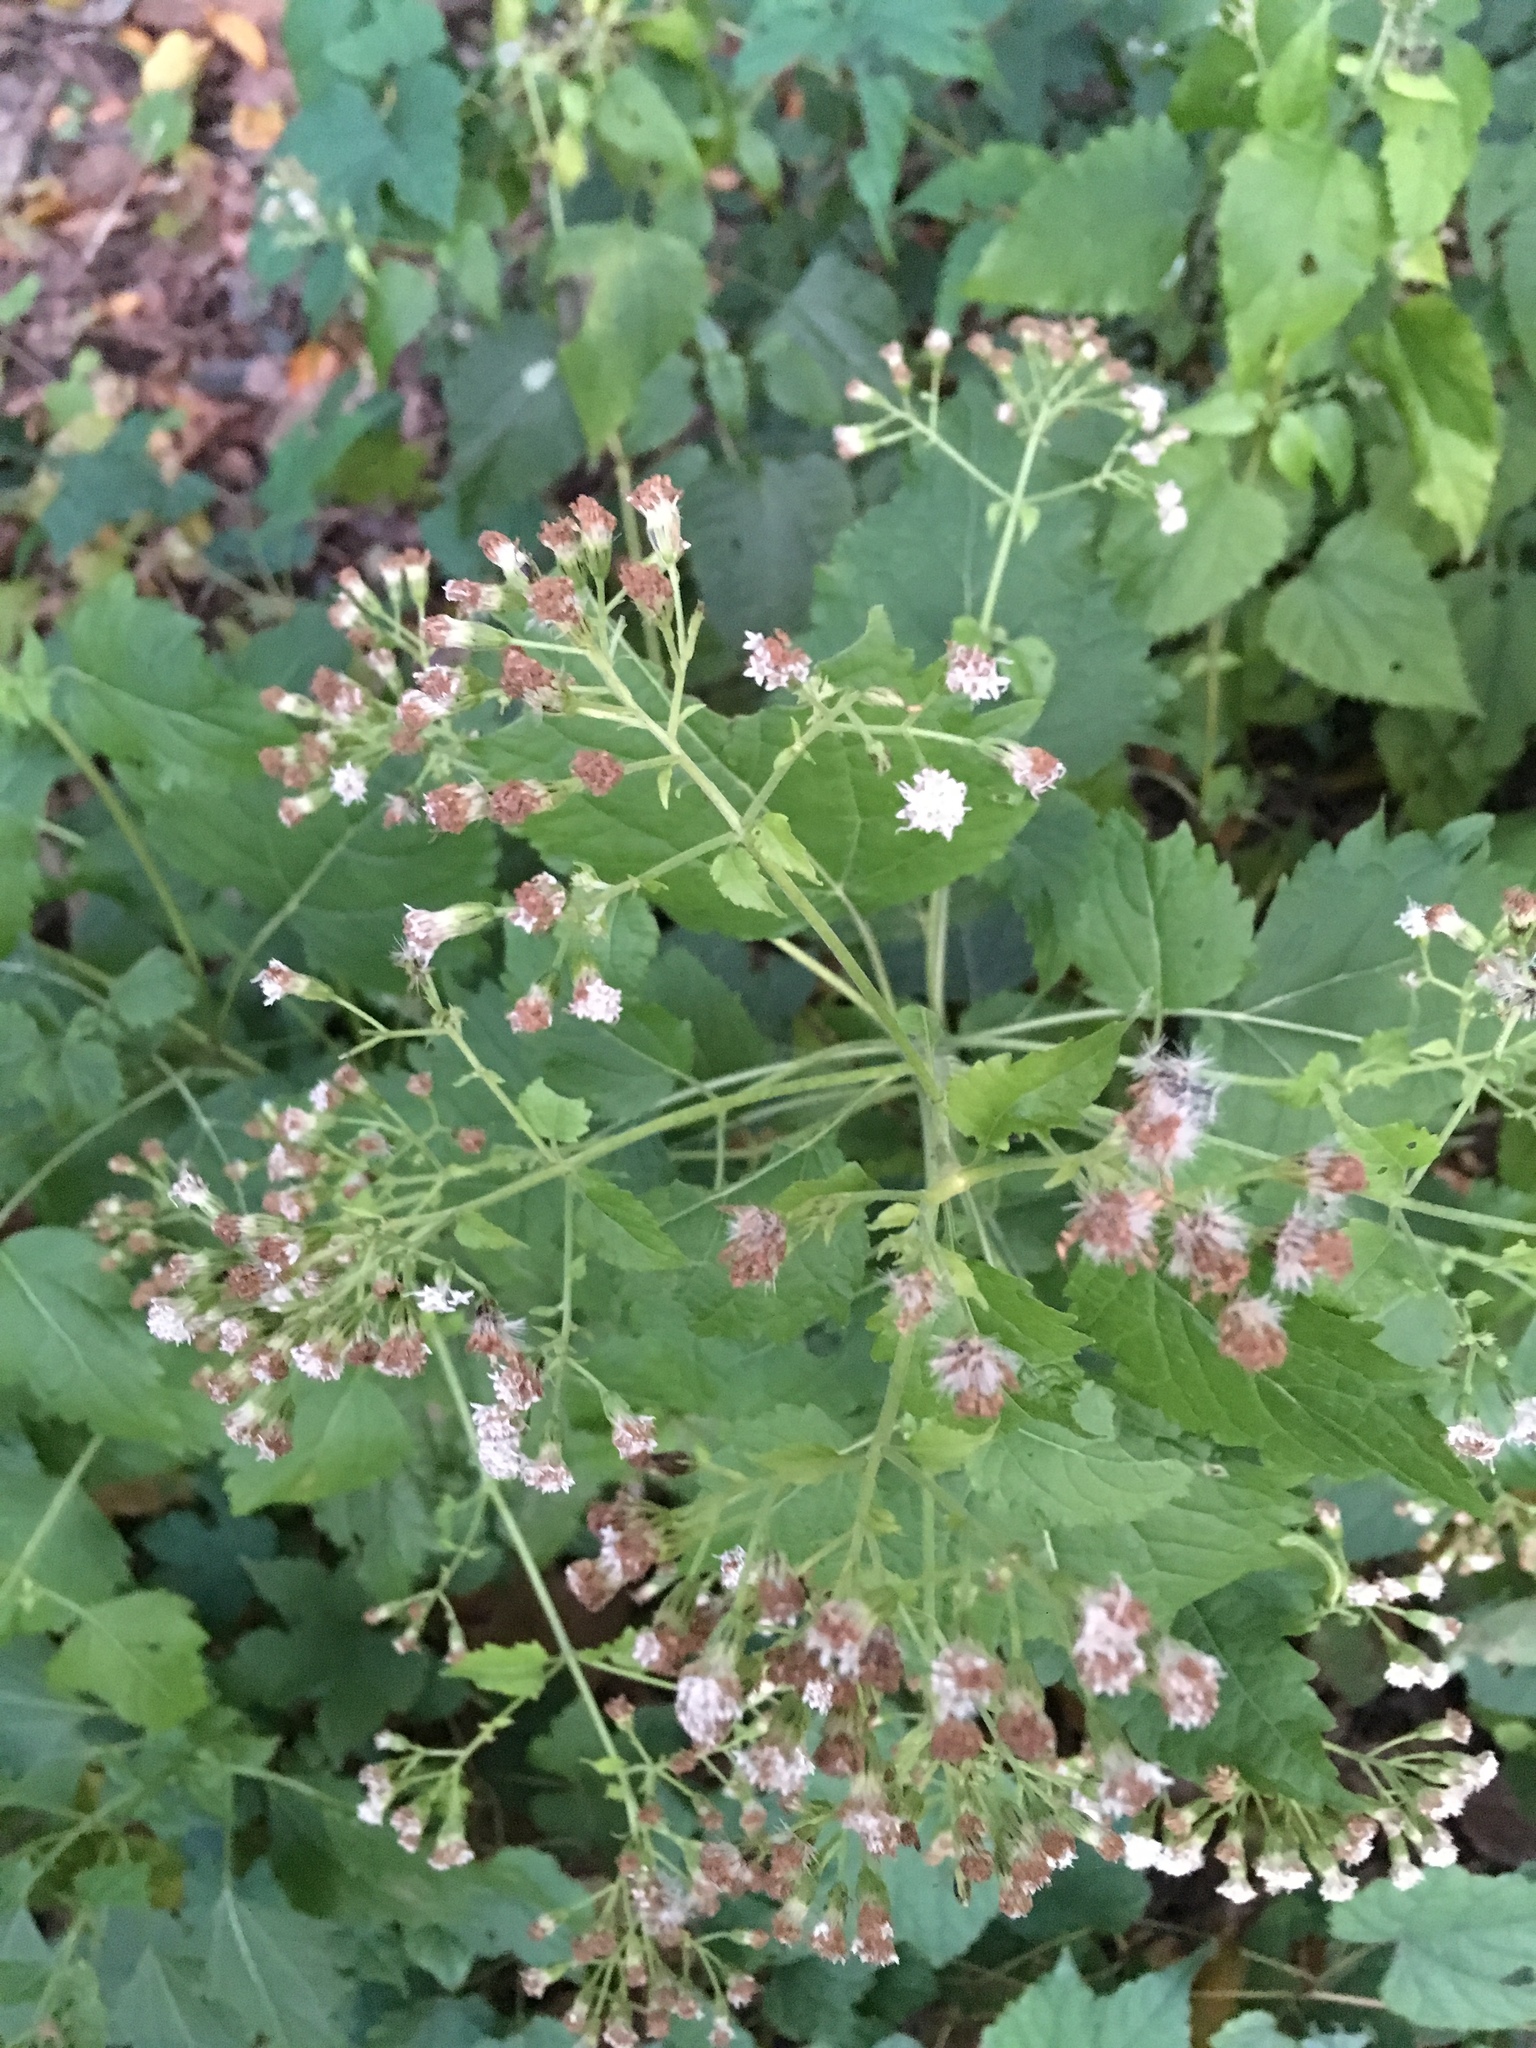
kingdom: Plantae
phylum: Tracheophyta
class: Magnoliopsida
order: Asterales
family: Asteraceae
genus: Ageratina
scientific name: Ageratina altissima
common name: White snakeroot
